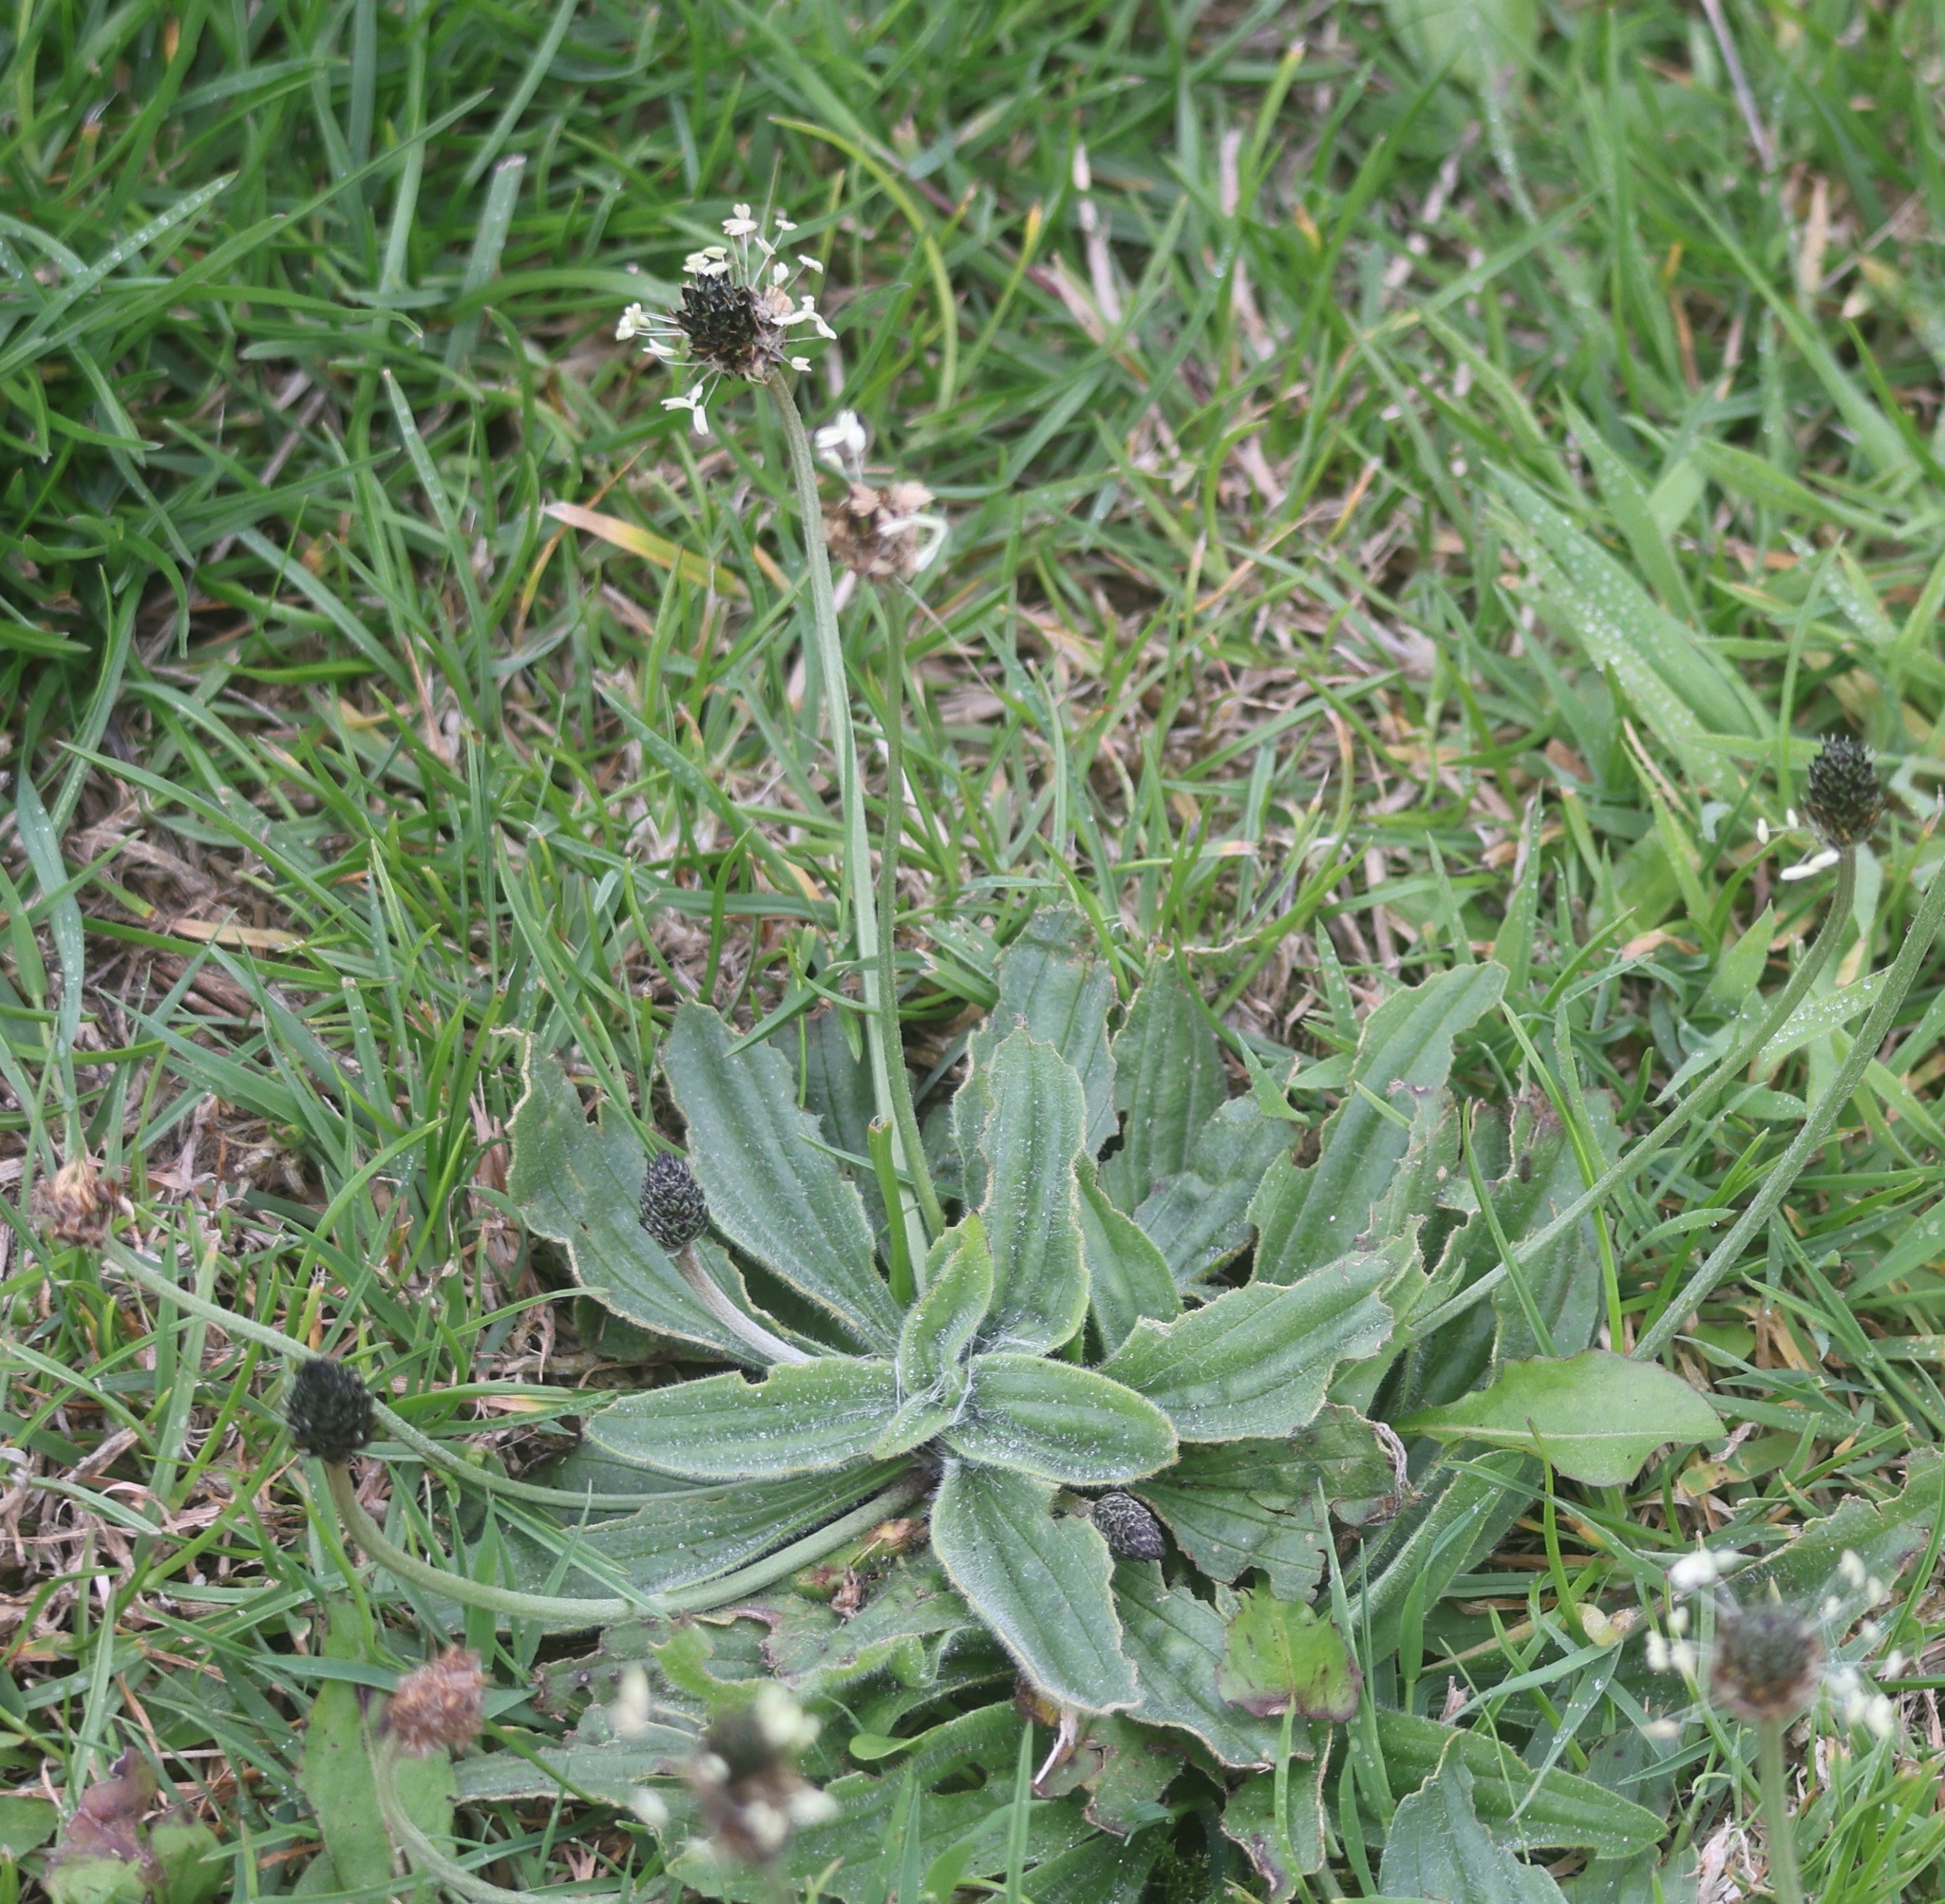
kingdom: Plantae
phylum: Tracheophyta
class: Magnoliopsida
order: Lamiales
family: Plantaginaceae
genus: Plantago
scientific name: Plantago lanceolata
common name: Ribwort plantain
